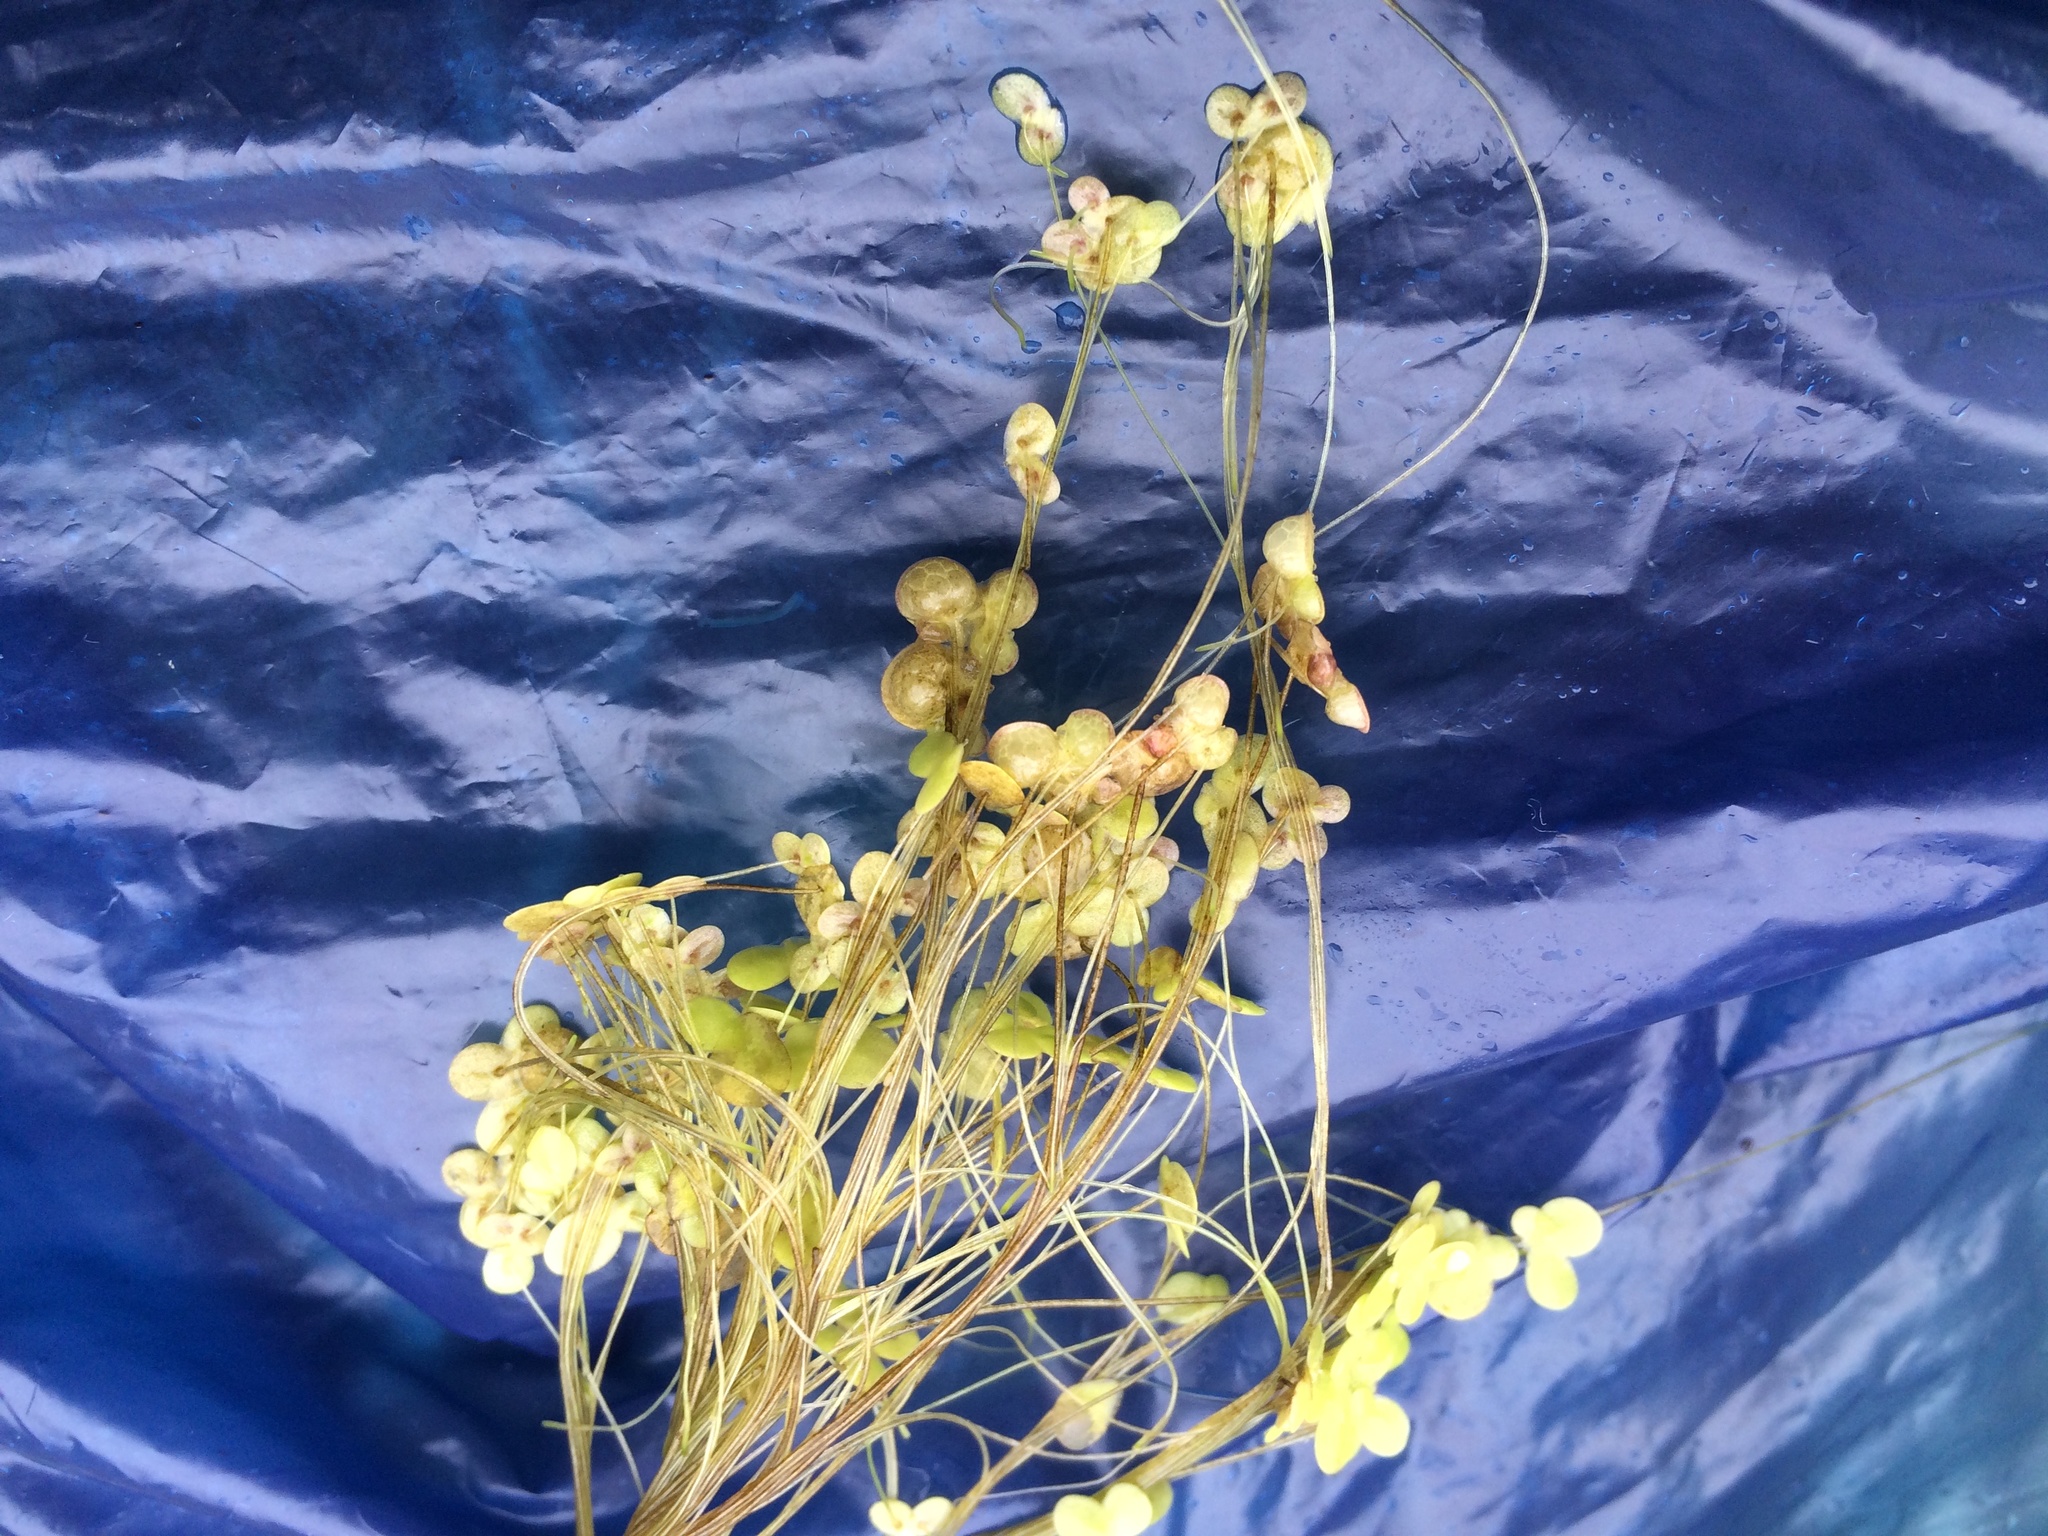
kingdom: Plantae
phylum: Tracheophyta
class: Liliopsida
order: Alismatales
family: Araceae
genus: Lemna
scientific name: Lemna gibba
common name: Fat duckweed
